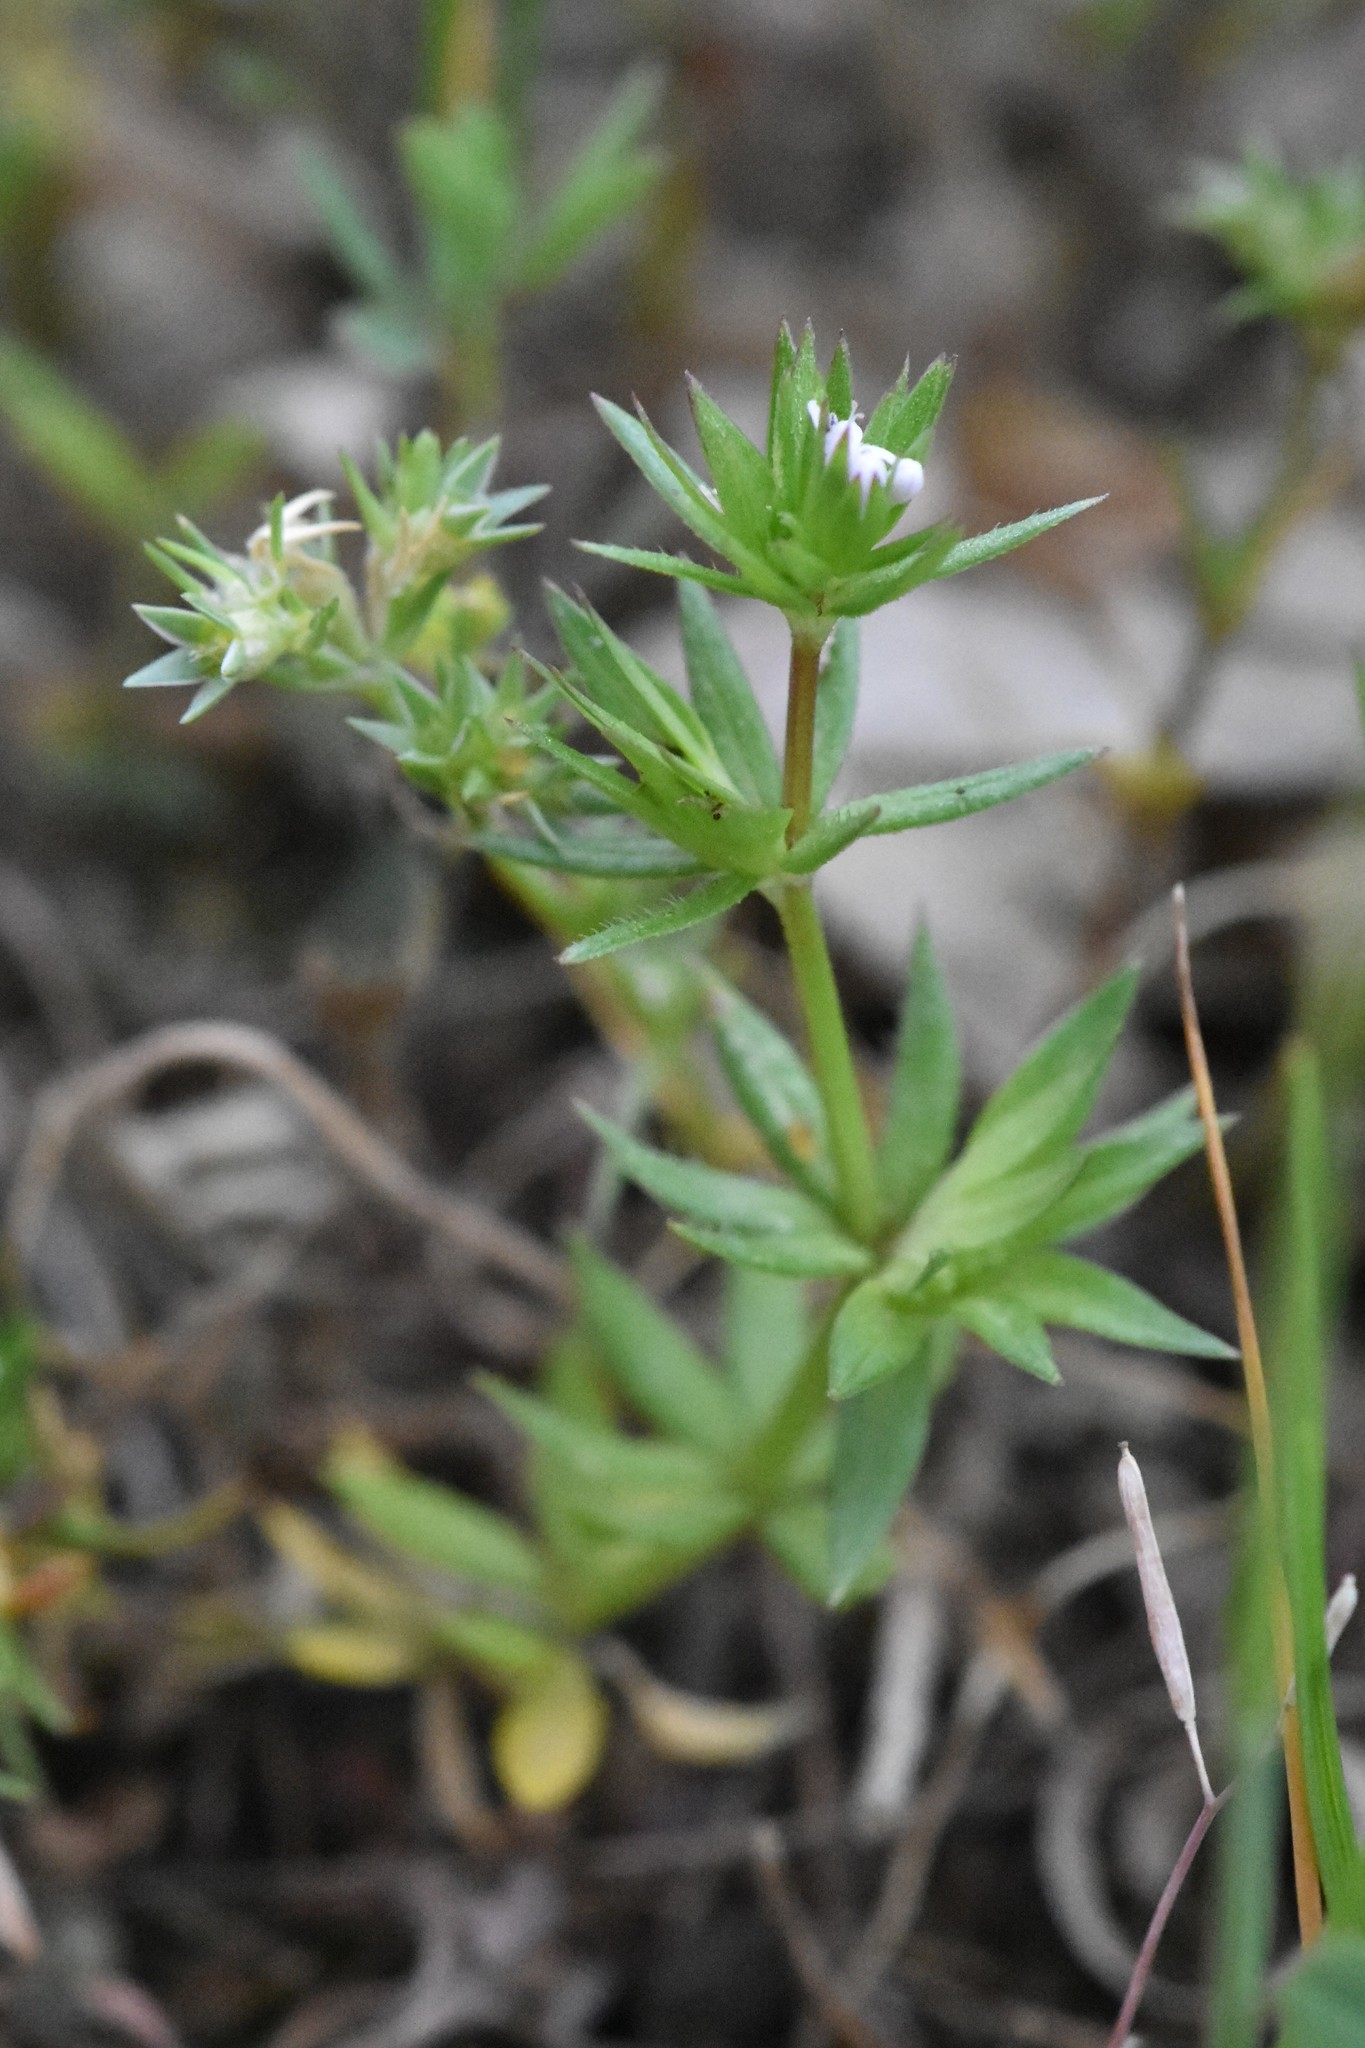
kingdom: Plantae
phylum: Tracheophyta
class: Magnoliopsida
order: Gentianales
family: Rubiaceae
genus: Sherardia
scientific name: Sherardia arvensis
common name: Field madder
